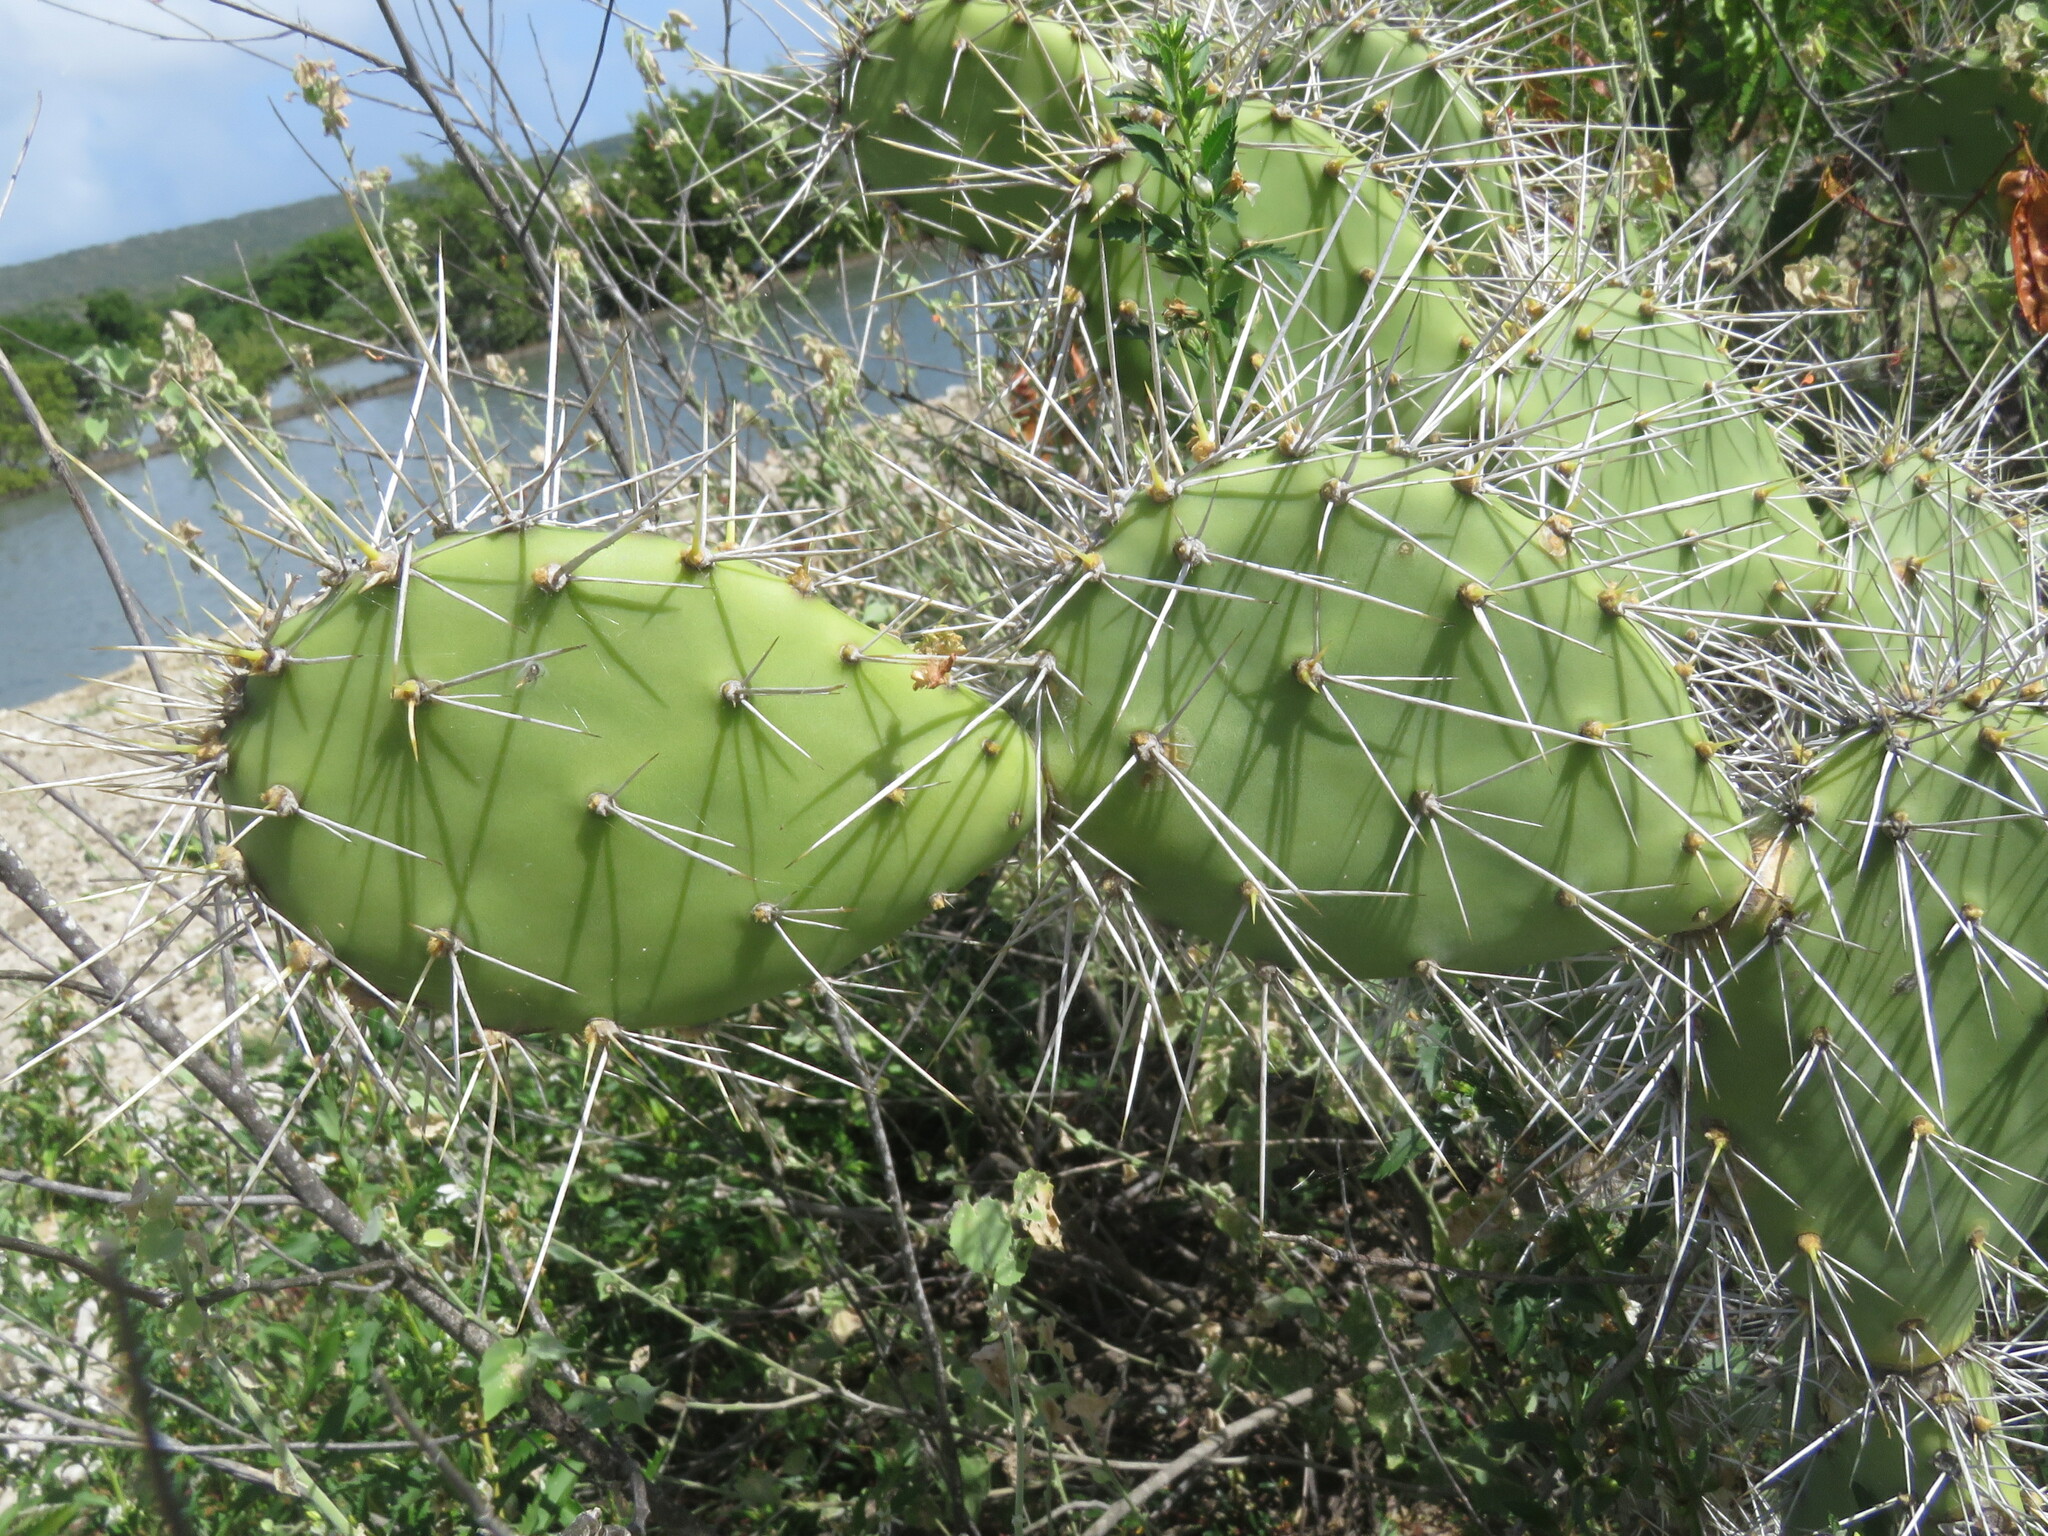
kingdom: Plantae
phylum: Tracheophyta
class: Magnoliopsida
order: Caryophyllales
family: Cactaceae
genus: Opuntia
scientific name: Opuntia caracassana
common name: Common prickly pear
